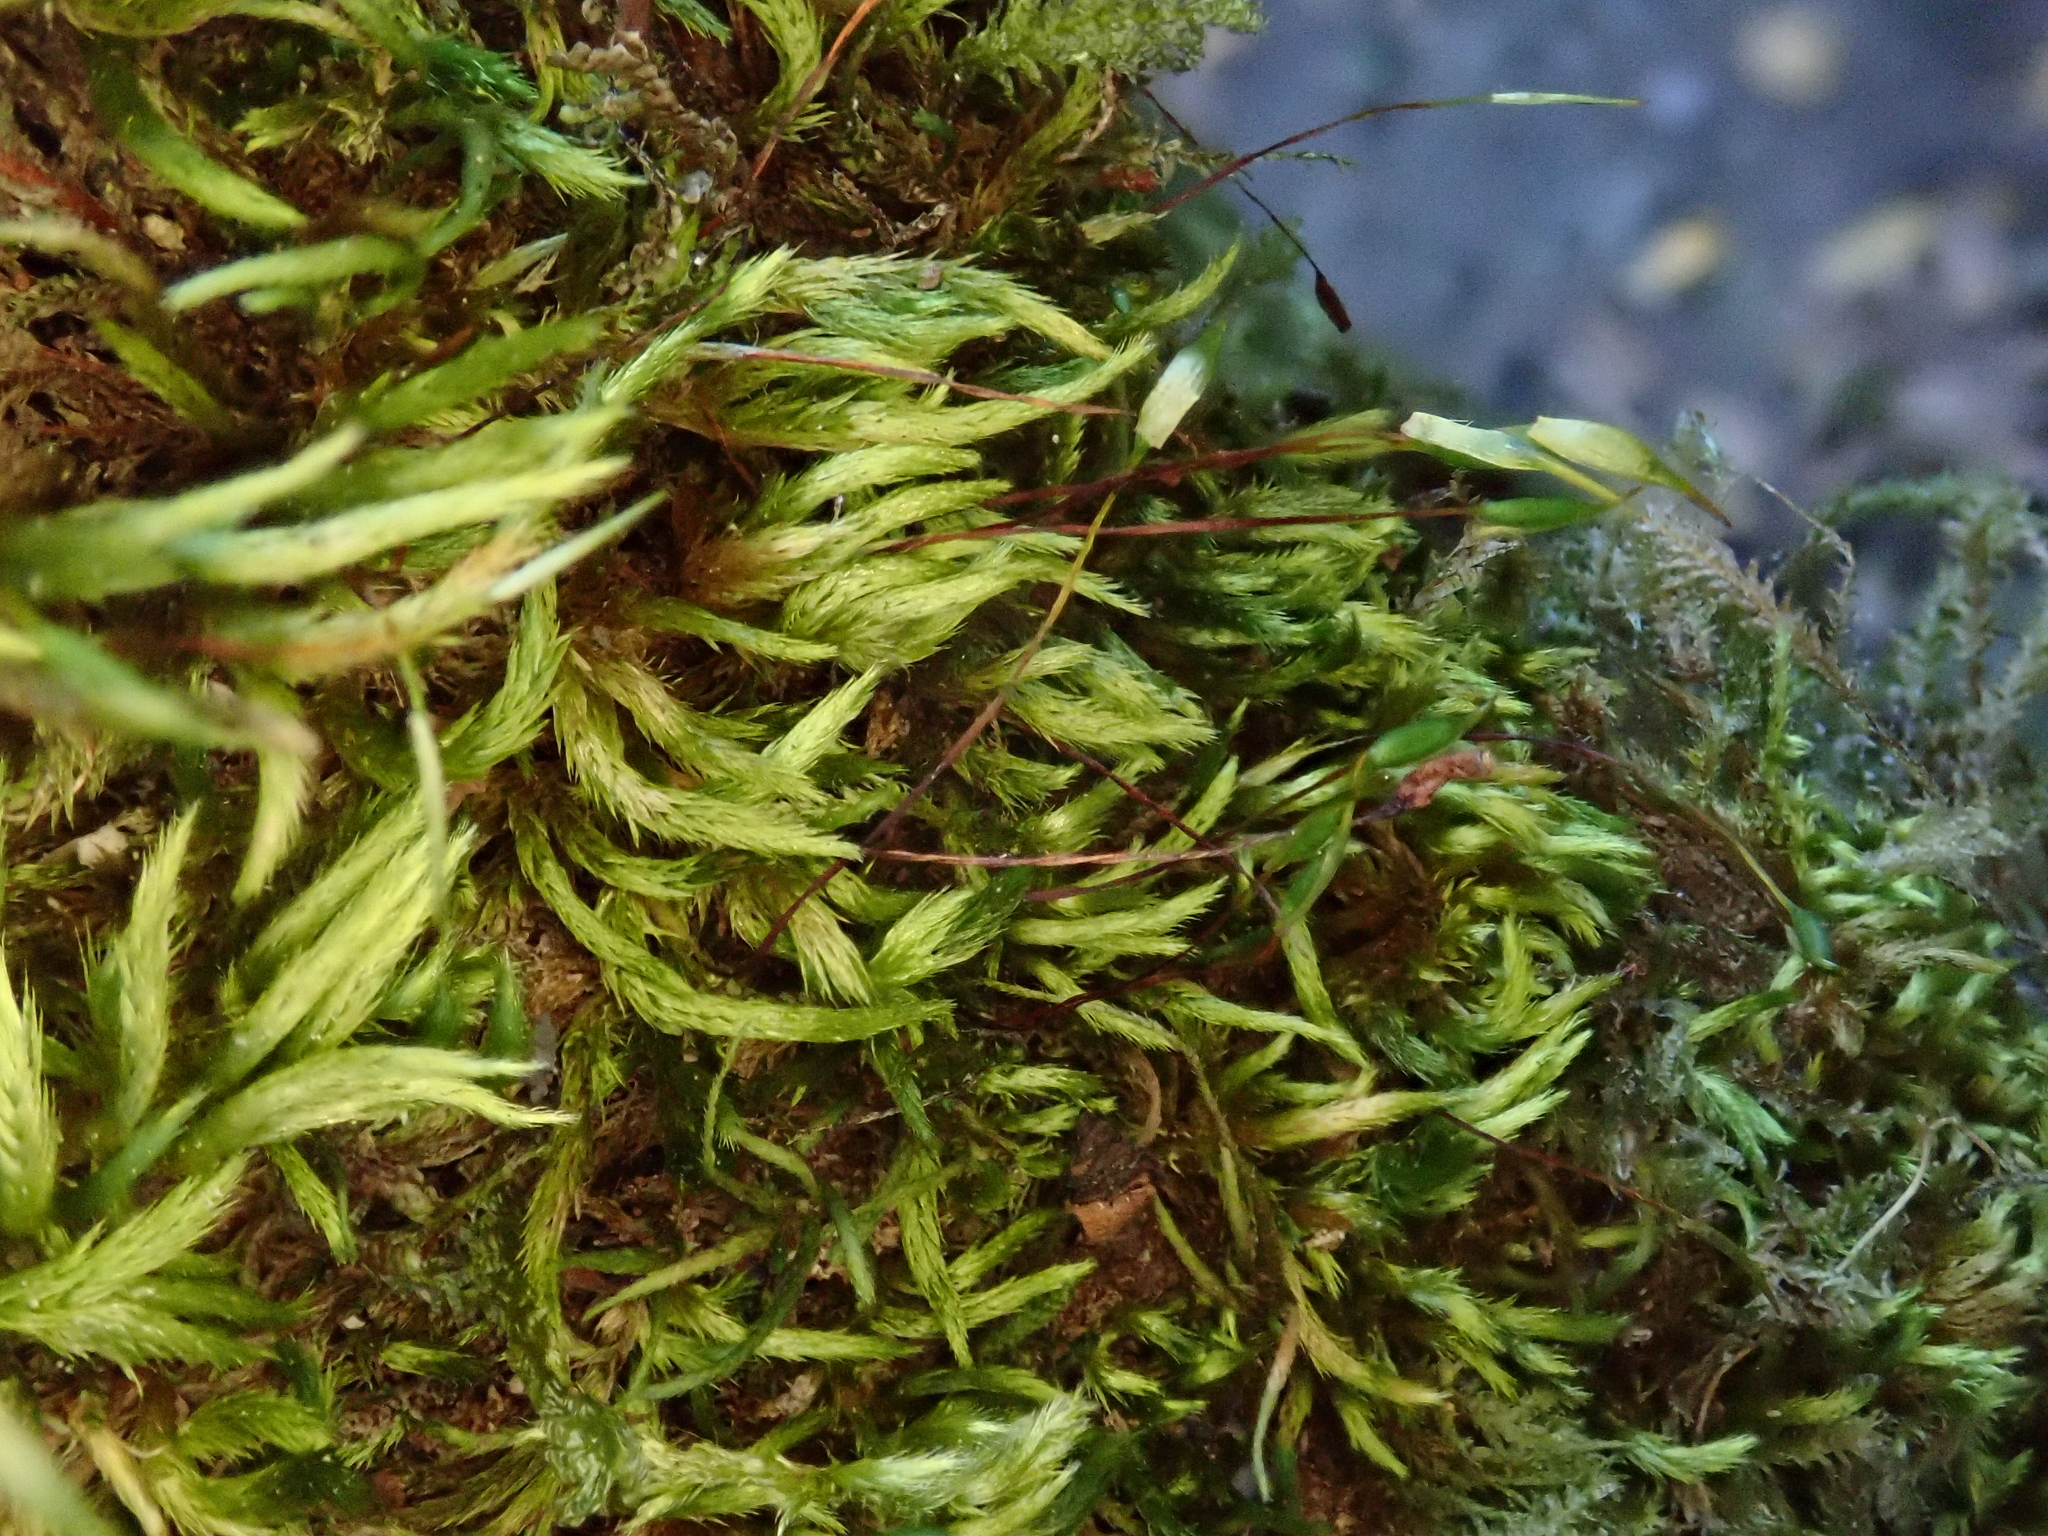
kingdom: Plantae
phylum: Bryophyta
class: Bryopsida
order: Hypnales
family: Brachytheciaceae
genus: Homalothecium
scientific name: Homalothecium sericeum
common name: Silky wall feather-moss
